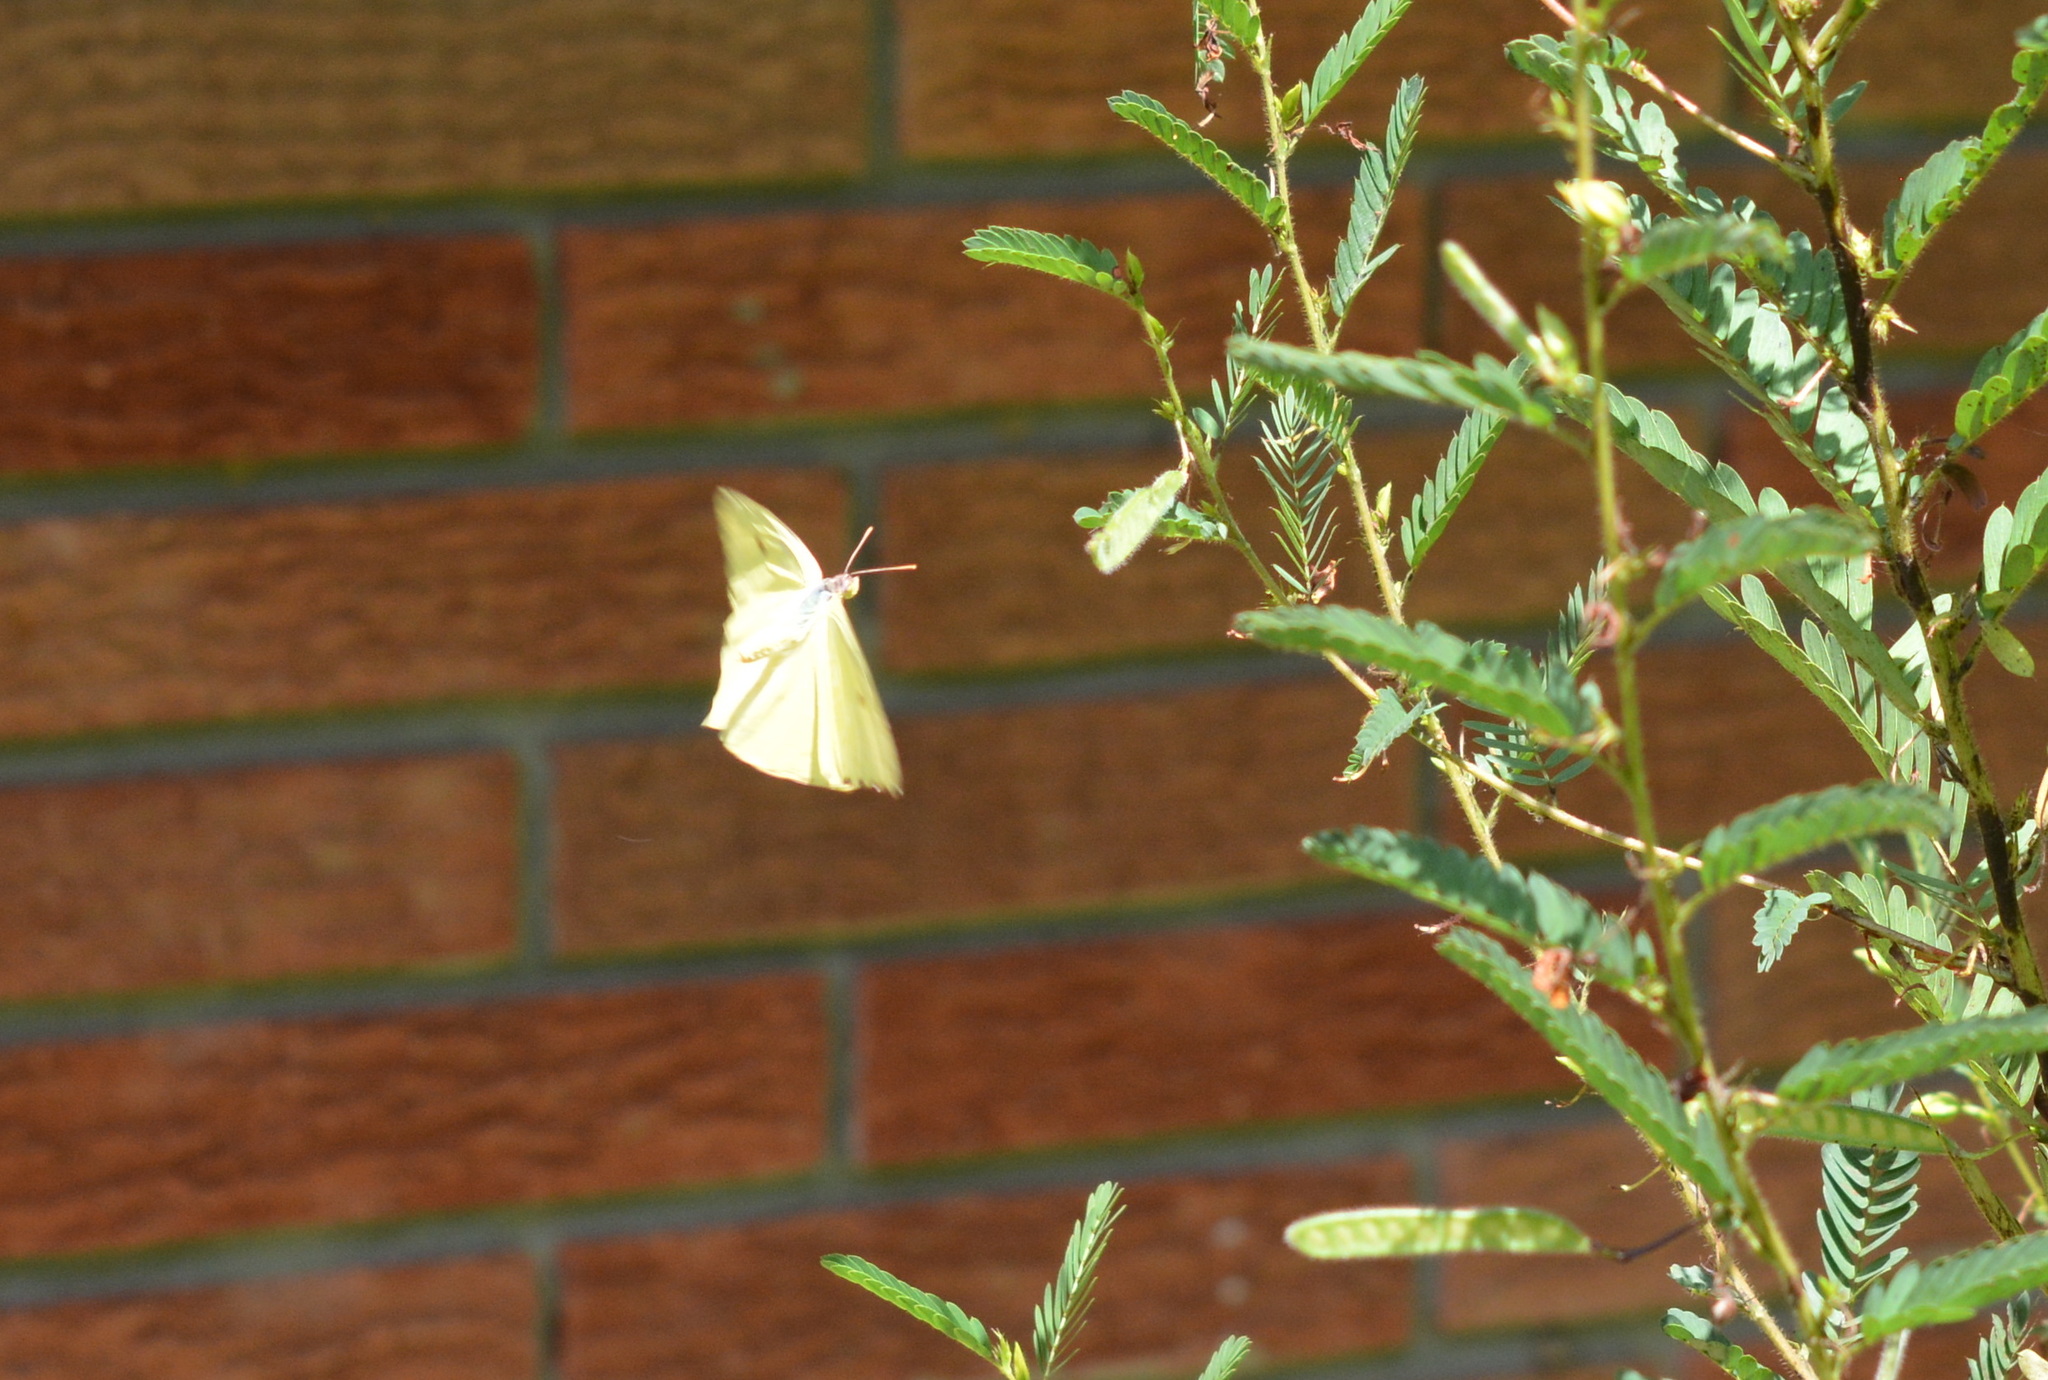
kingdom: Animalia
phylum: Arthropoda
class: Insecta
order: Lepidoptera
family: Pieridae
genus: Phoebis
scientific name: Phoebis sennae
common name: Cloudless sulphur
